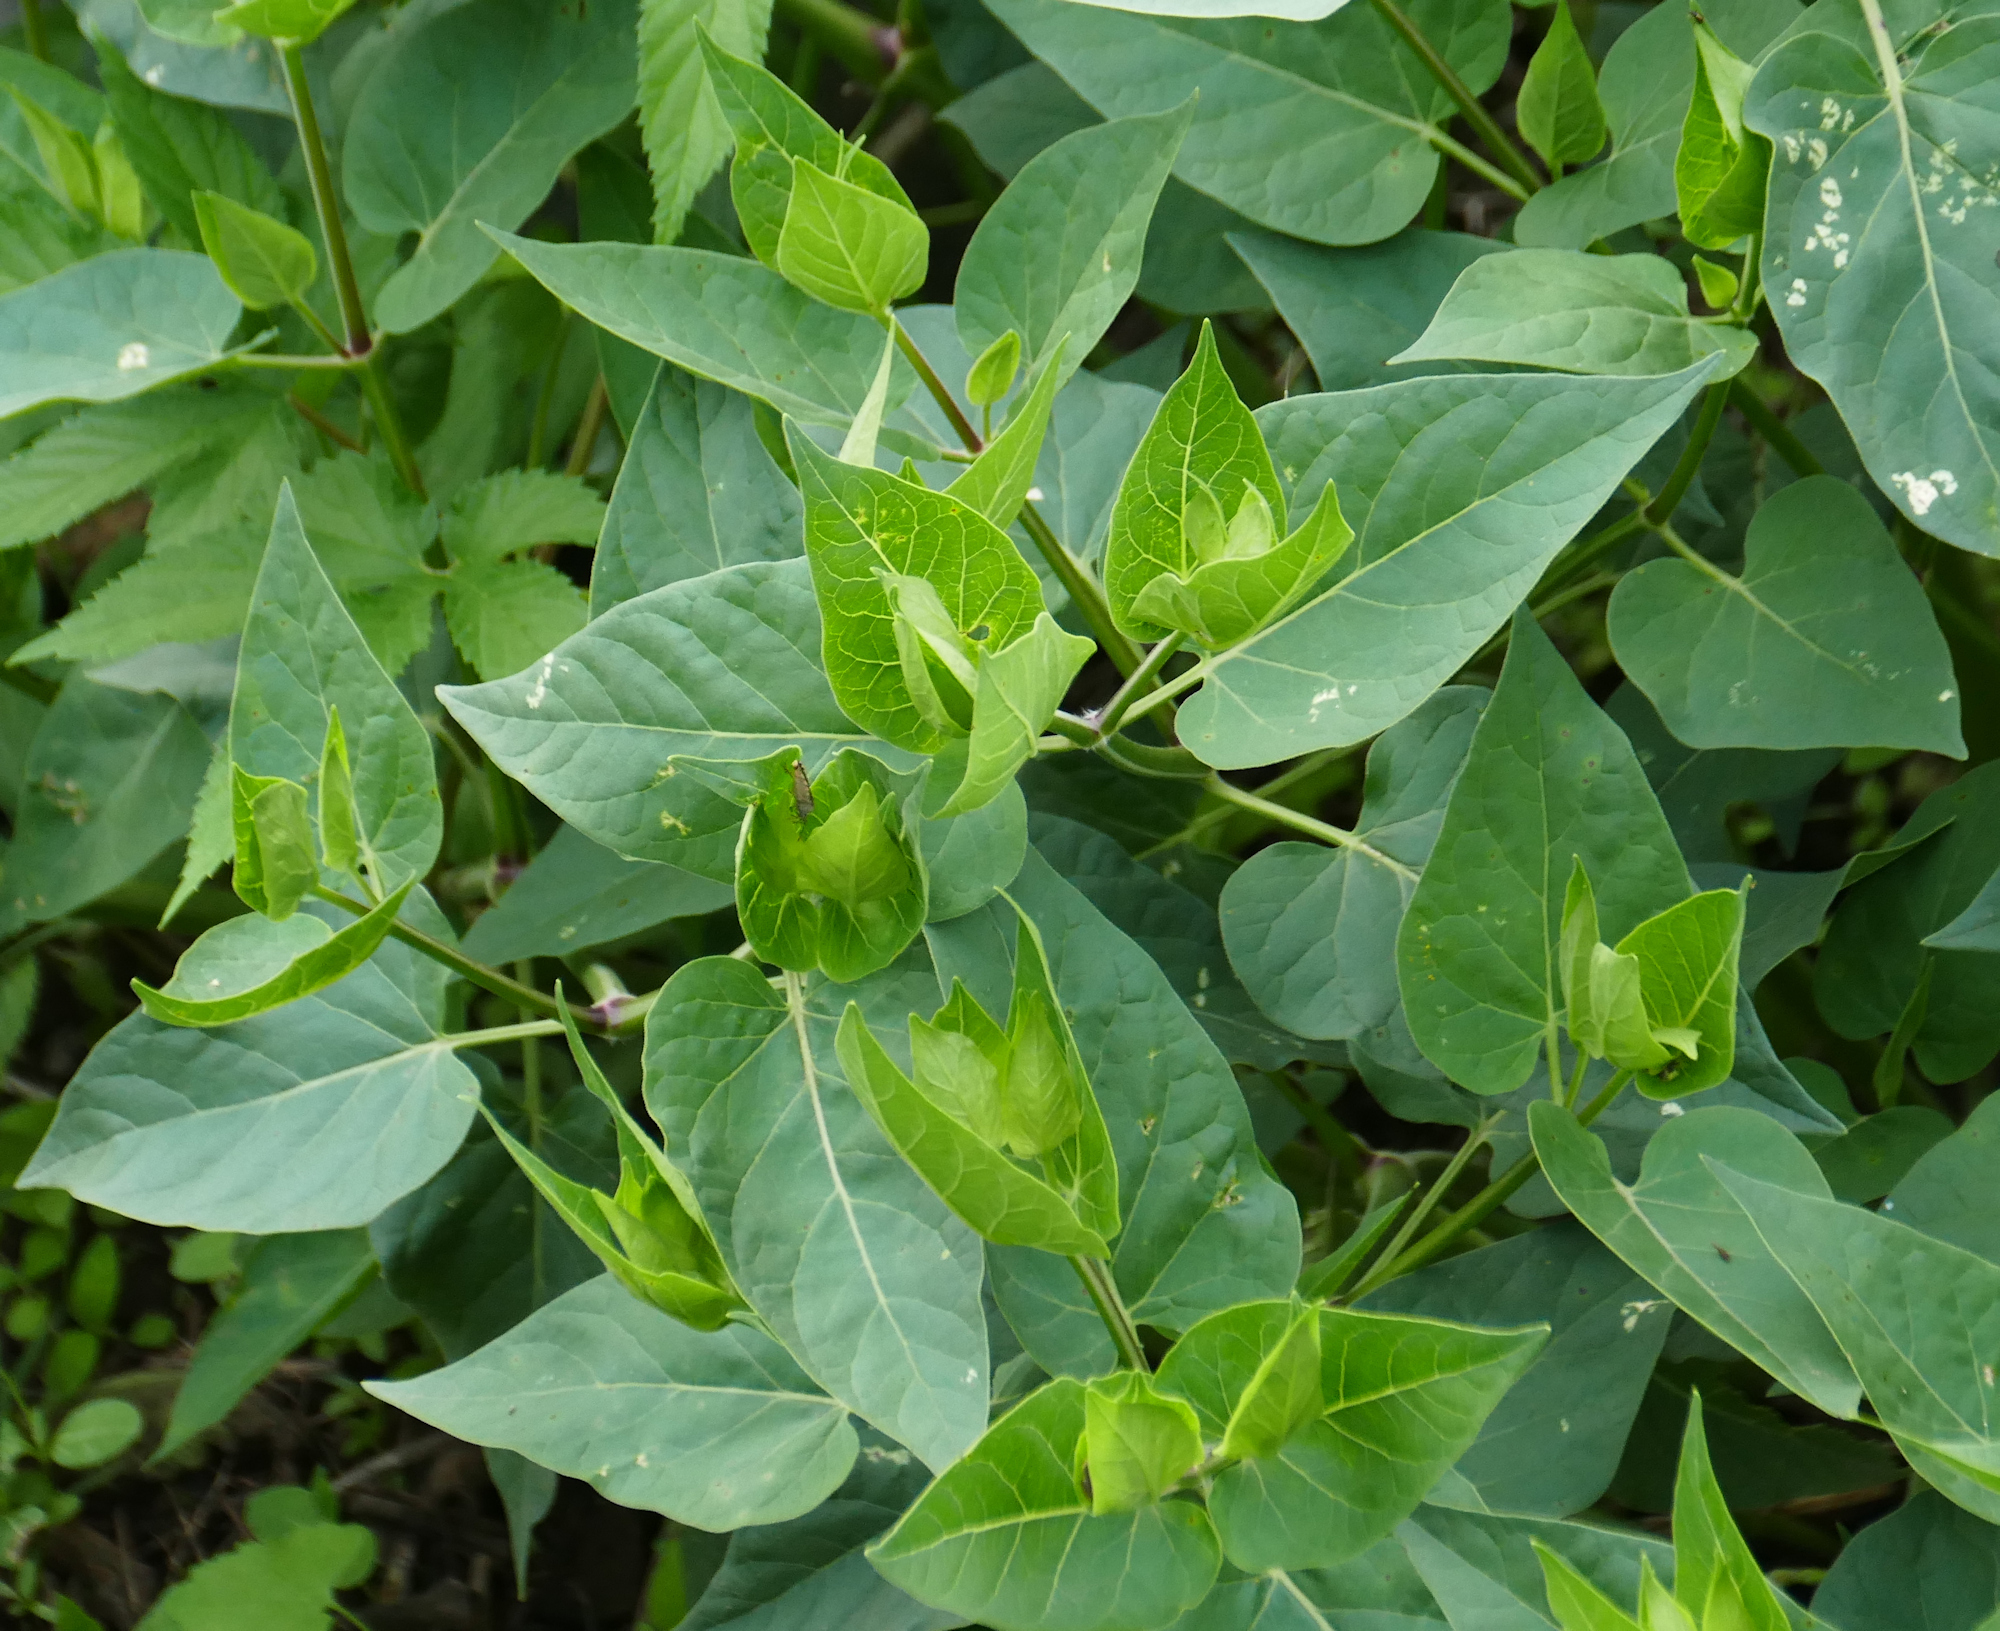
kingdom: Plantae
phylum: Tracheophyta
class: Magnoliopsida
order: Caryophyllales
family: Nyctaginaceae
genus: Mirabilis
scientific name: Mirabilis longiflora
